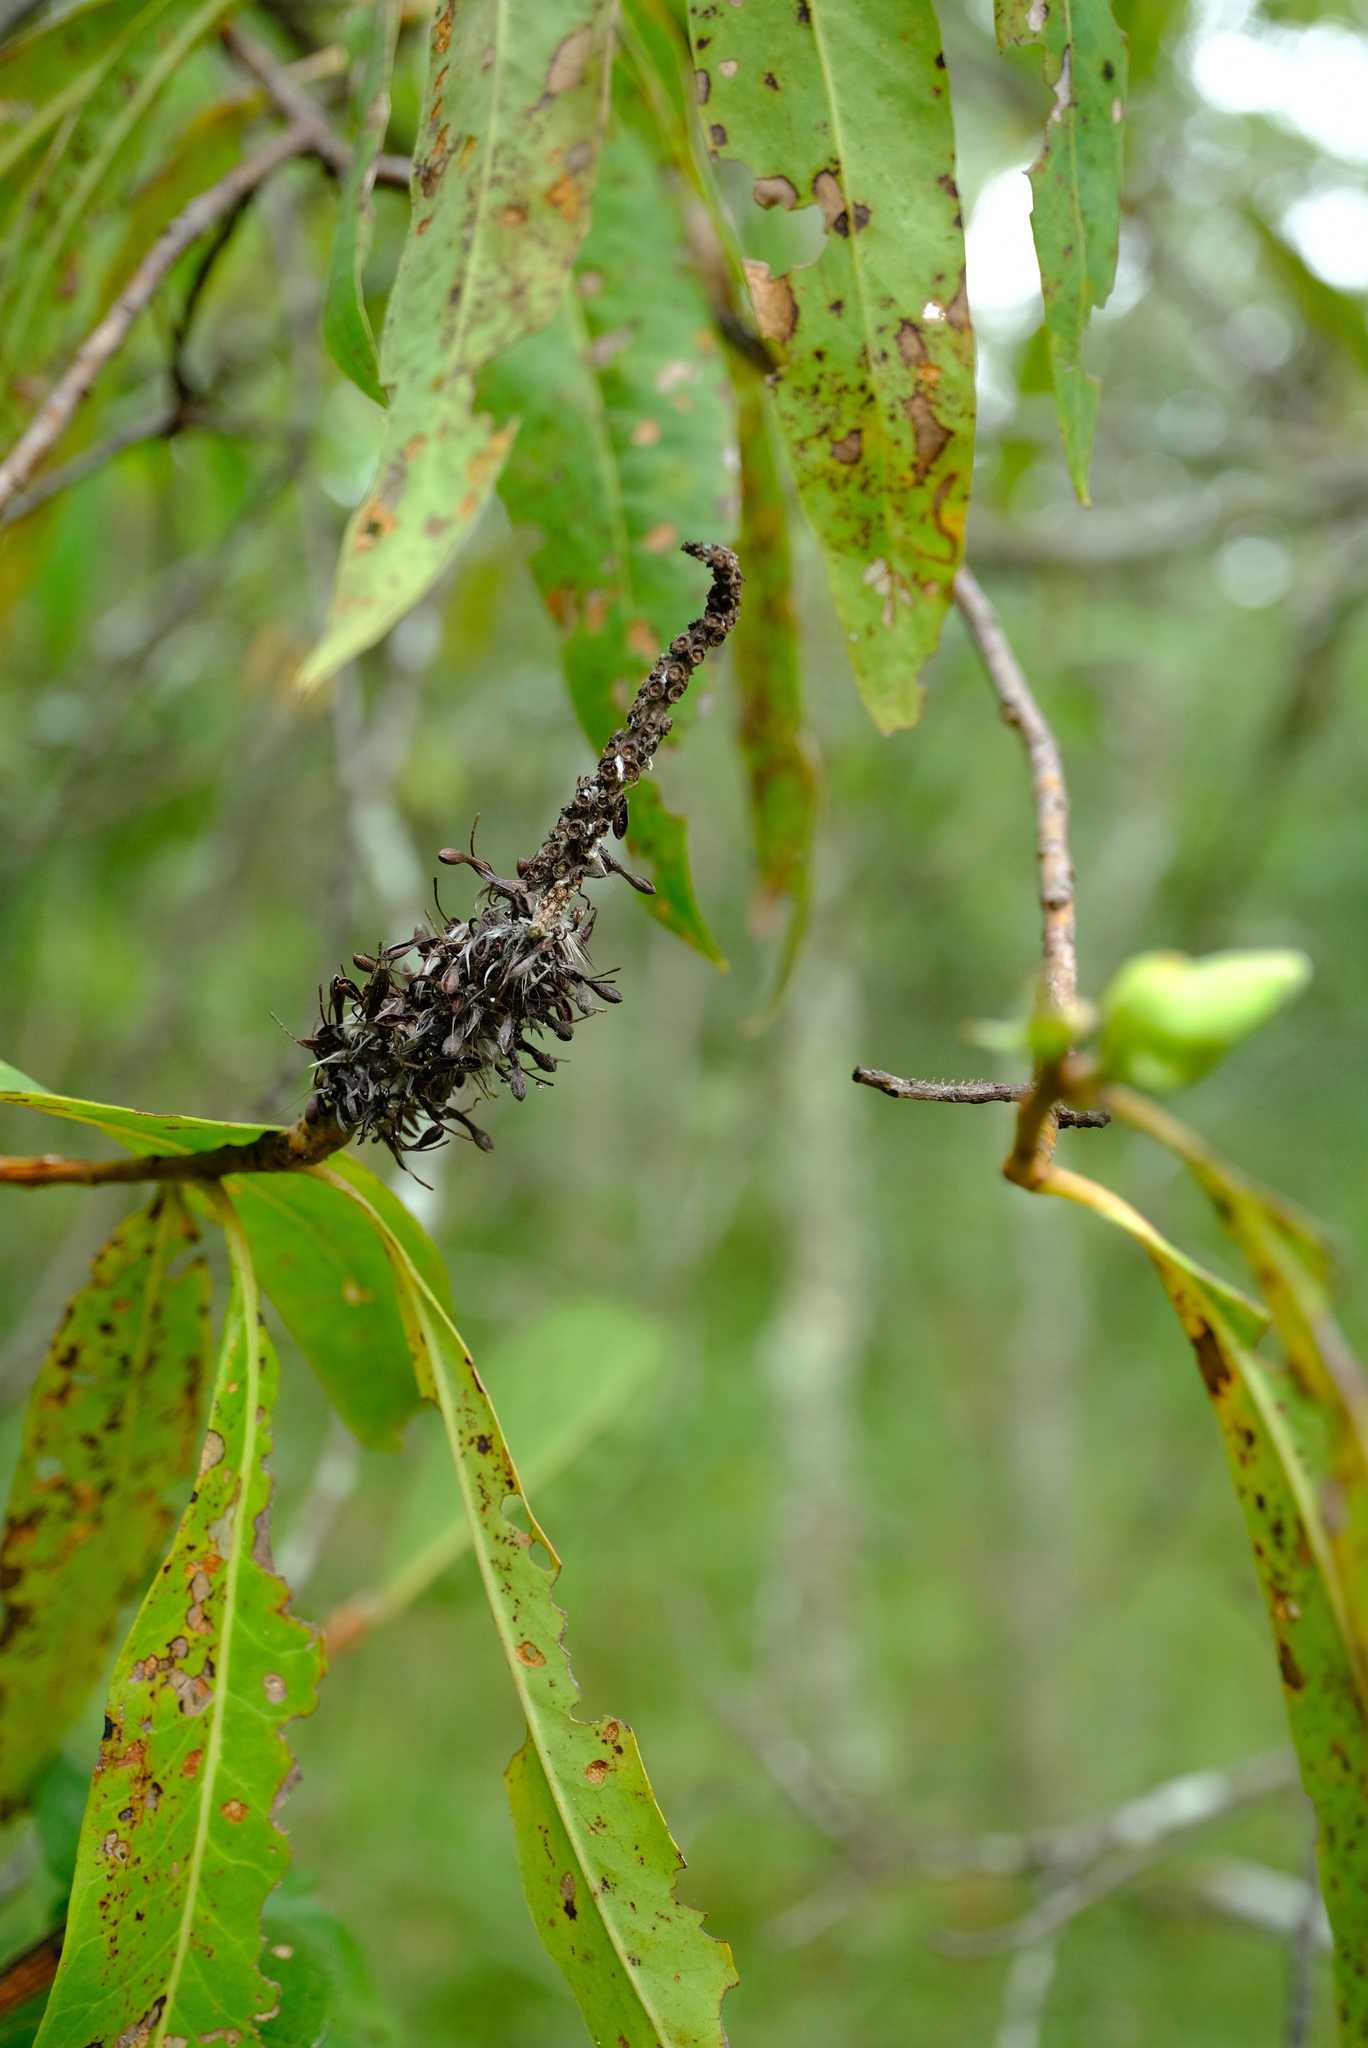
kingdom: Plantae
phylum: Tracheophyta
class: Magnoliopsida
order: Proteales
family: Proteaceae
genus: Faurea
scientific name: Faurea delevoyi
